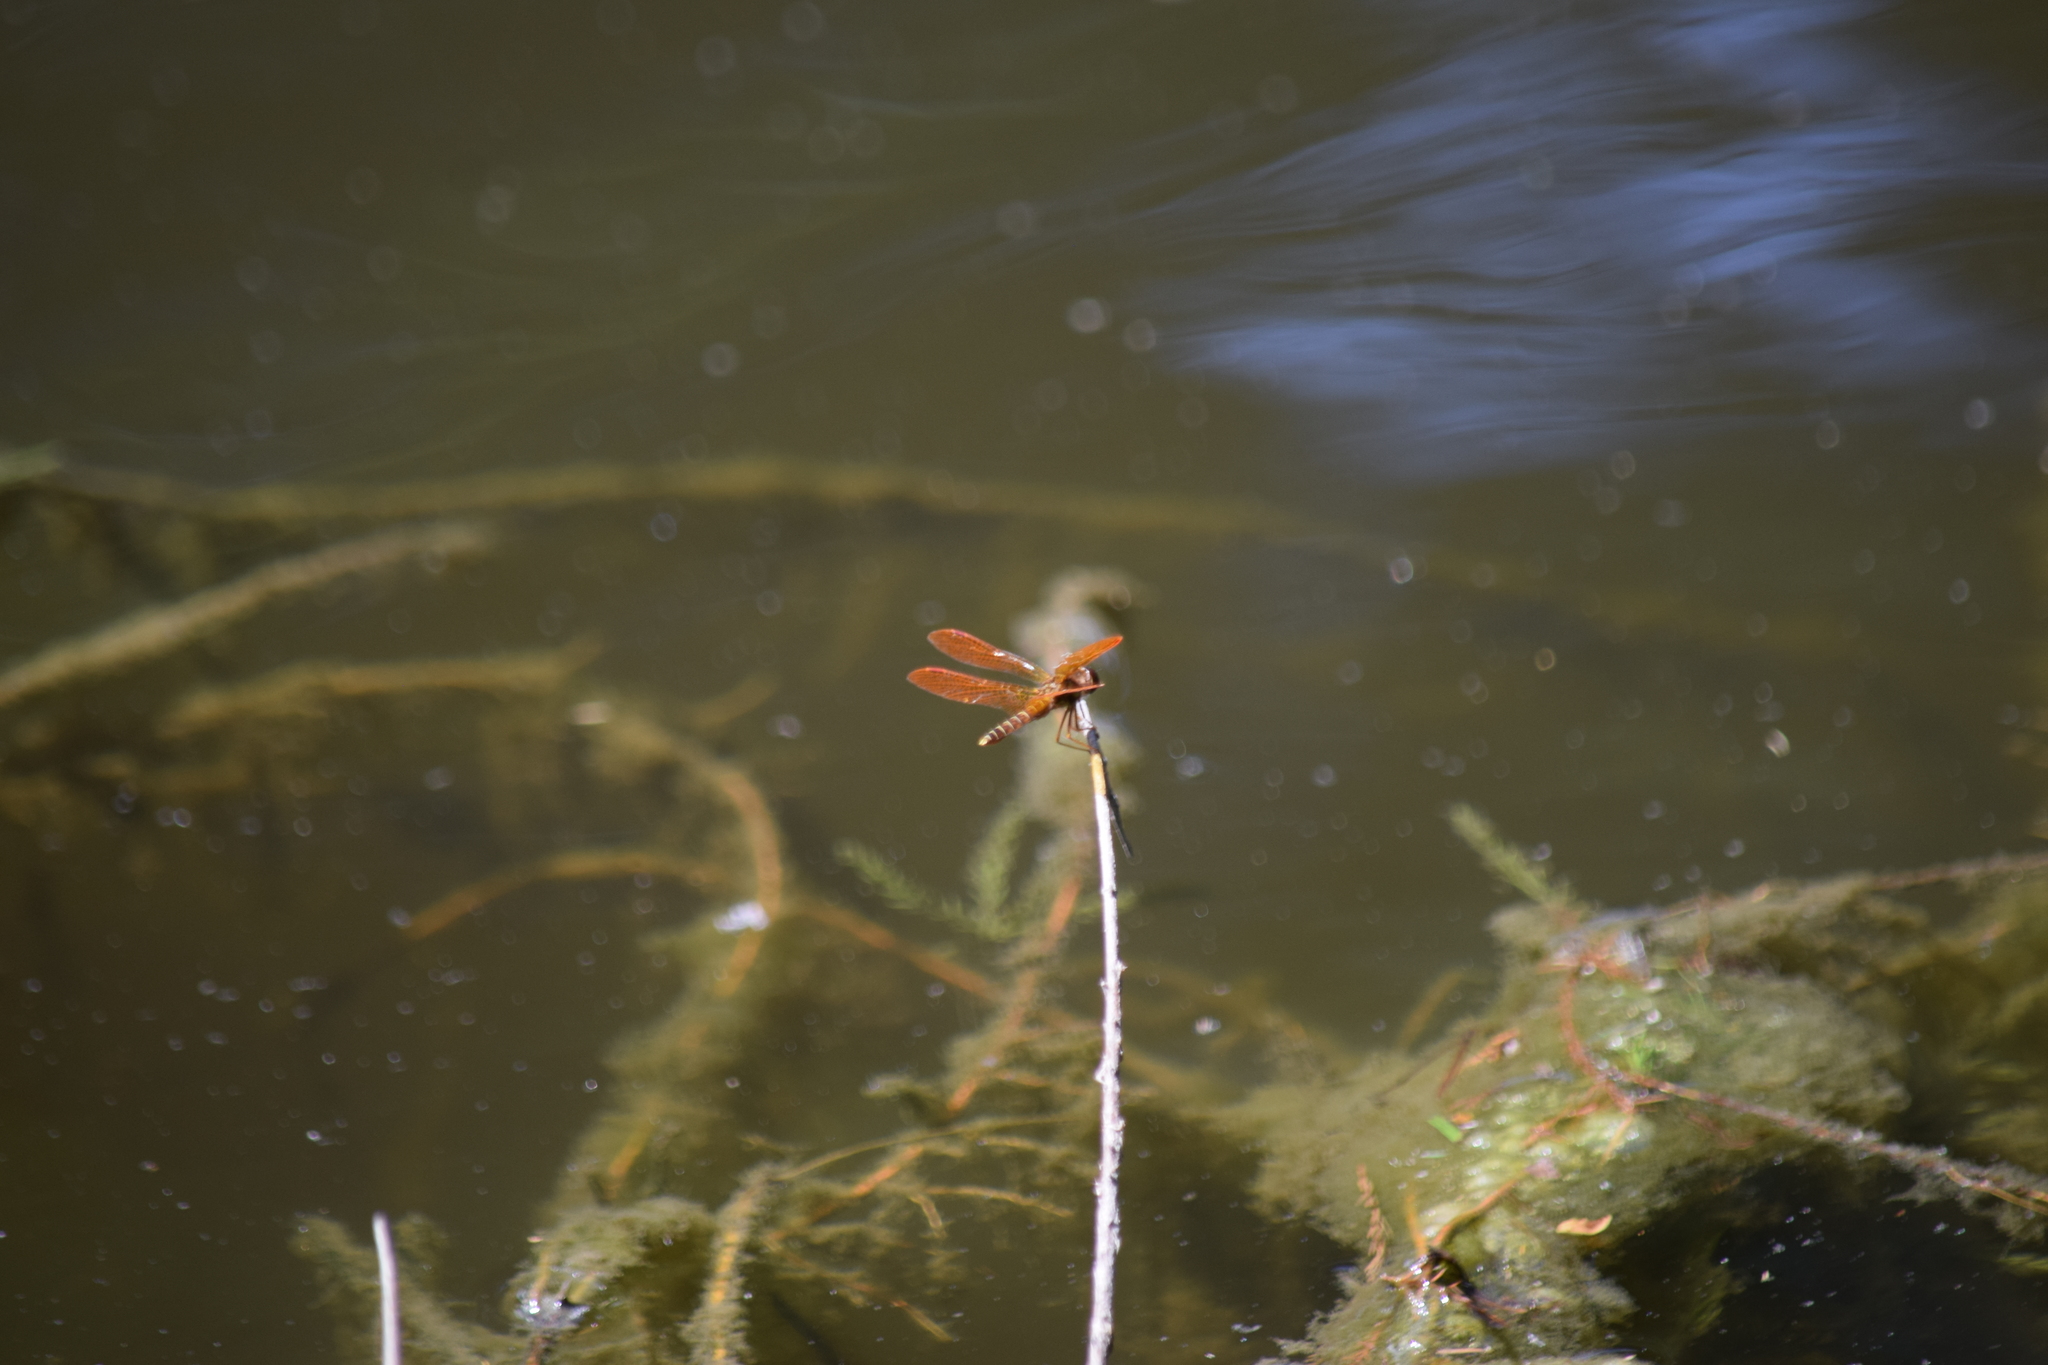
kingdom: Animalia
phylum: Arthropoda
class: Insecta
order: Odonata
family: Libellulidae
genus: Perithemis
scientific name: Perithemis tenera
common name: Eastern amberwing
